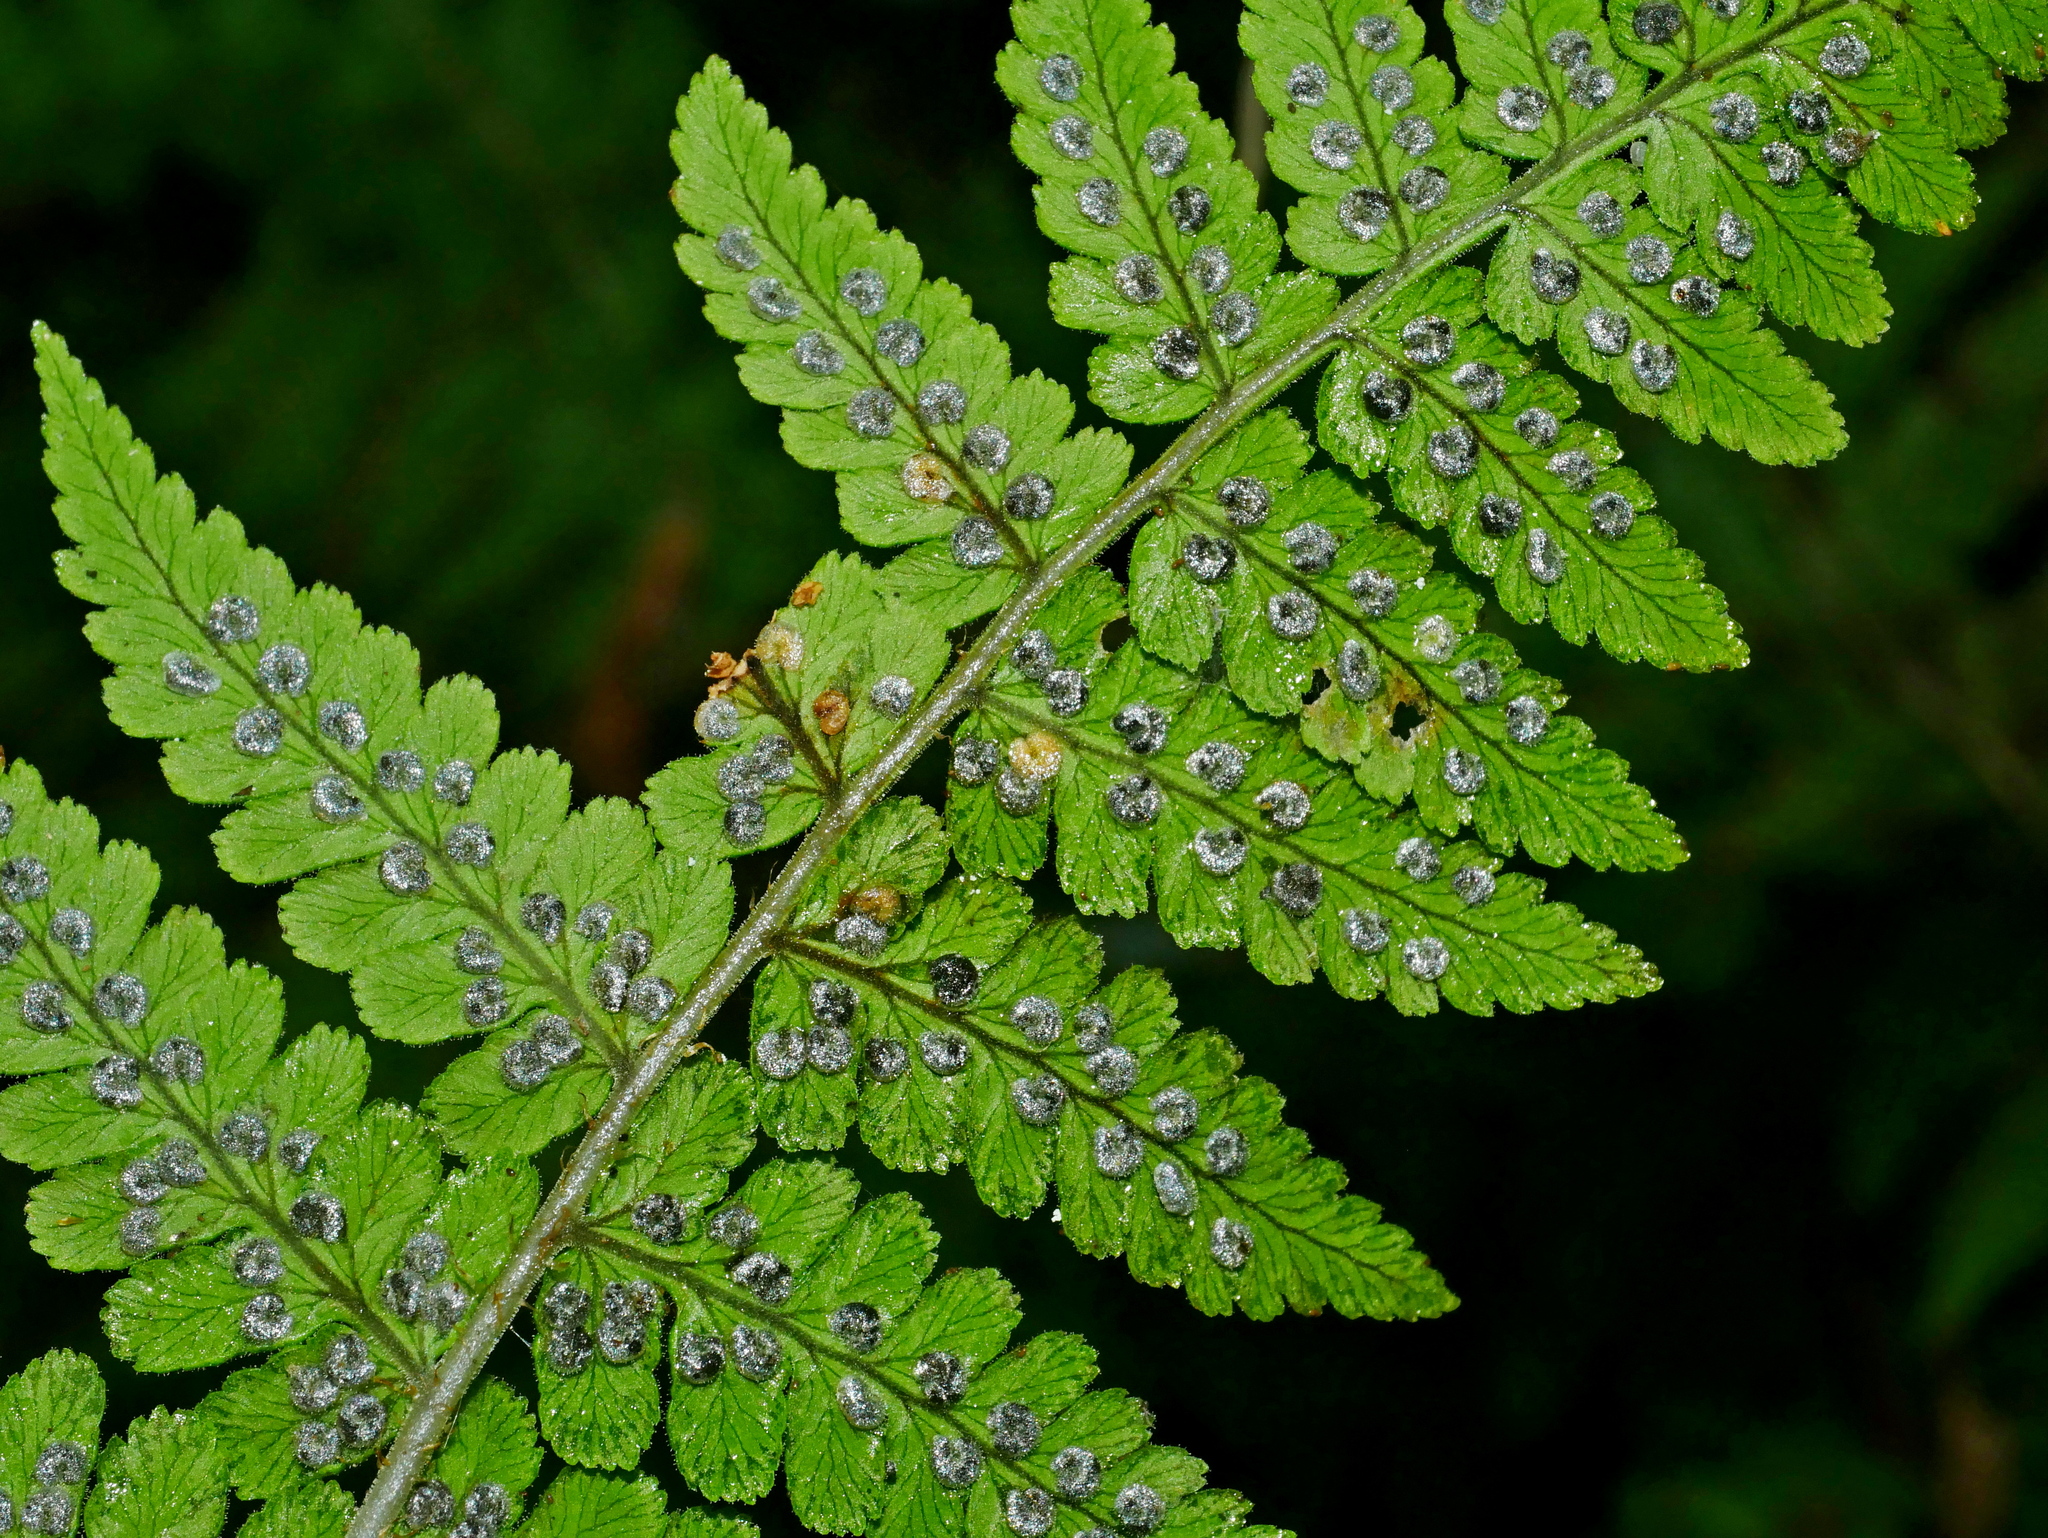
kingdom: Plantae
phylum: Tracheophyta
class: Polypodiopsida
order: Polypodiales
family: Dryopteridaceae
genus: Dryopteris
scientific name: Dryopteris woodsiisora
